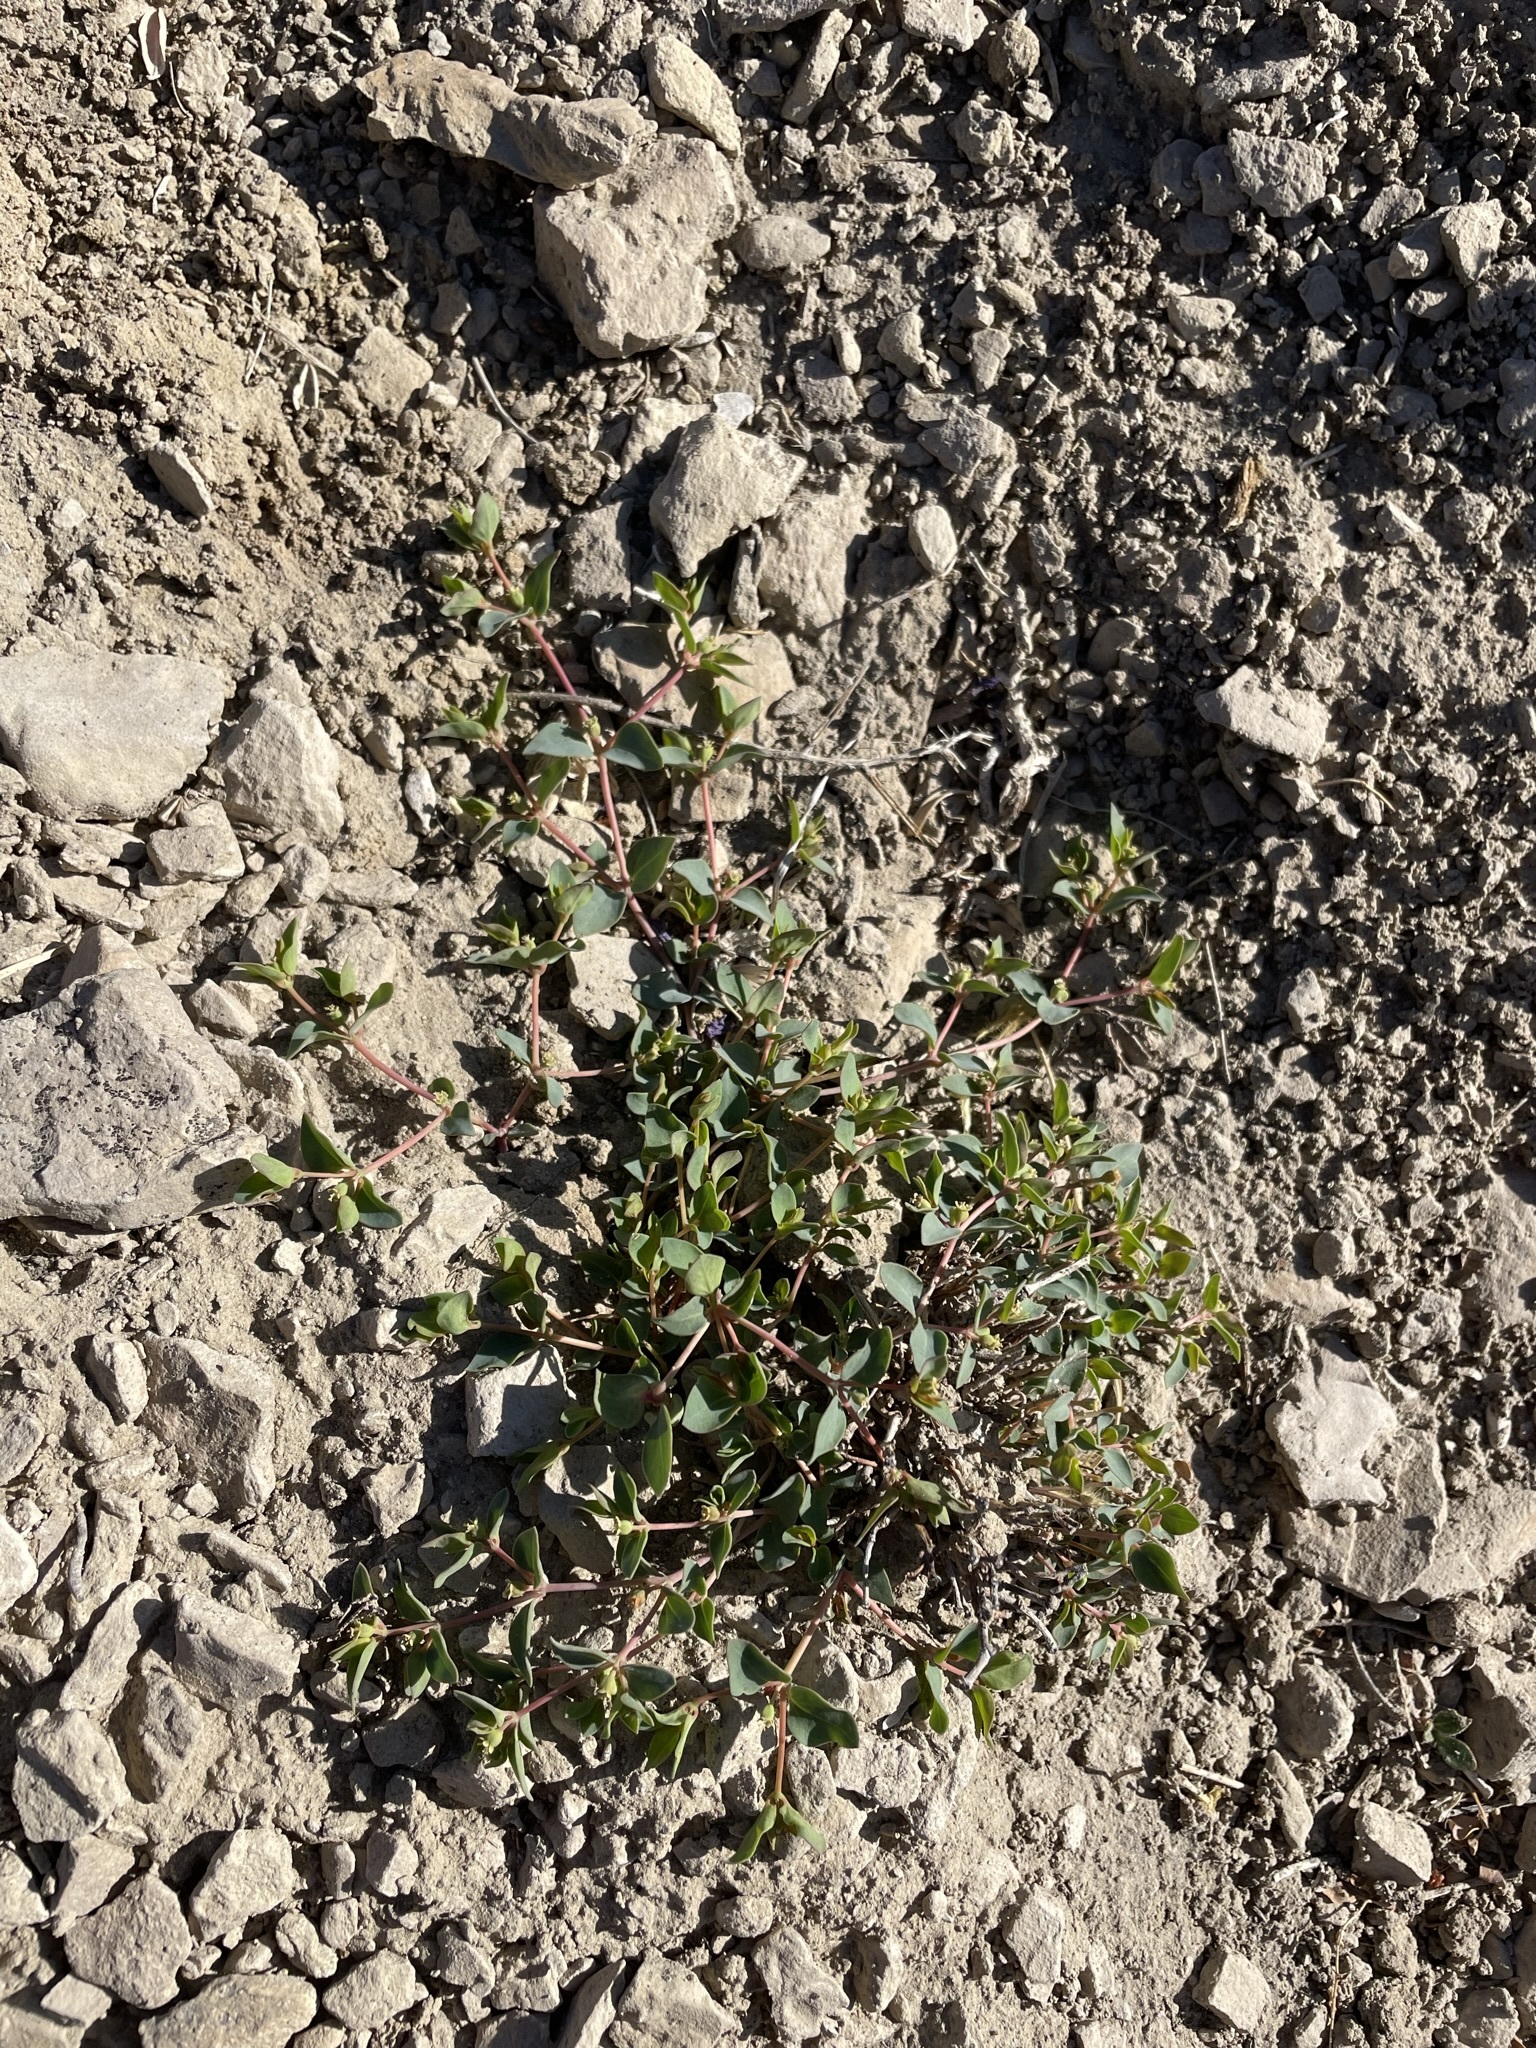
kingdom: Plantae
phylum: Tracheophyta
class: Magnoliopsida
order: Malpighiales
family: Euphorbiaceae
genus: Euphorbia
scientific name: Euphorbia fendleri
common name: Fendler's euphorbia
